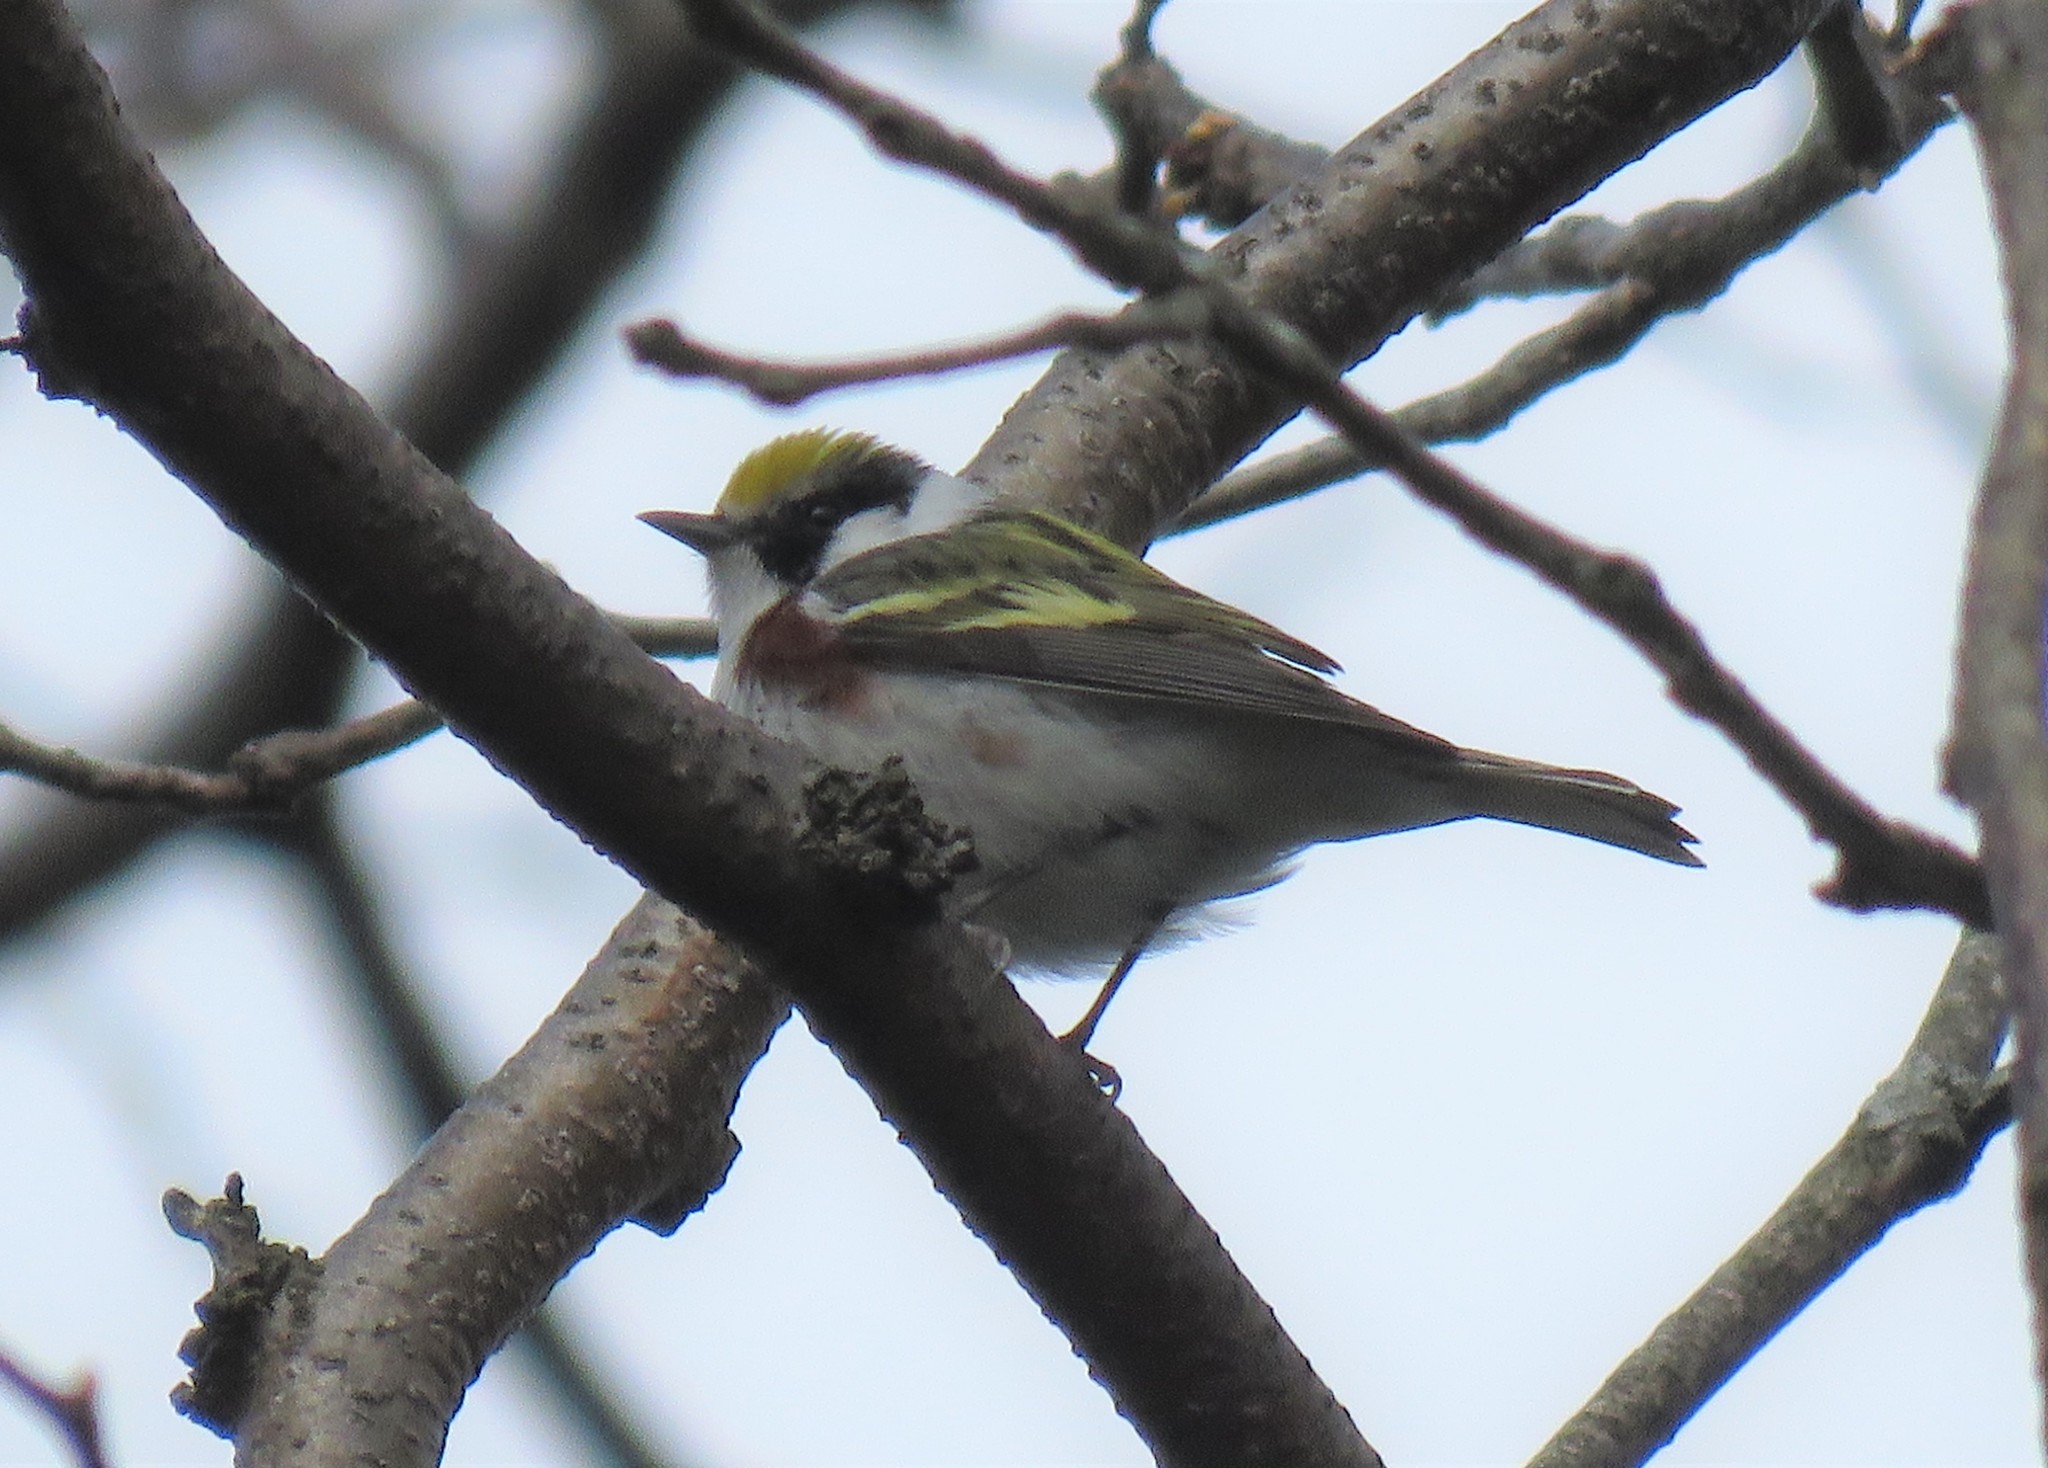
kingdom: Animalia
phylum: Chordata
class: Aves
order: Passeriformes
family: Parulidae
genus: Setophaga
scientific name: Setophaga pensylvanica
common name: Chestnut-sided warbler
